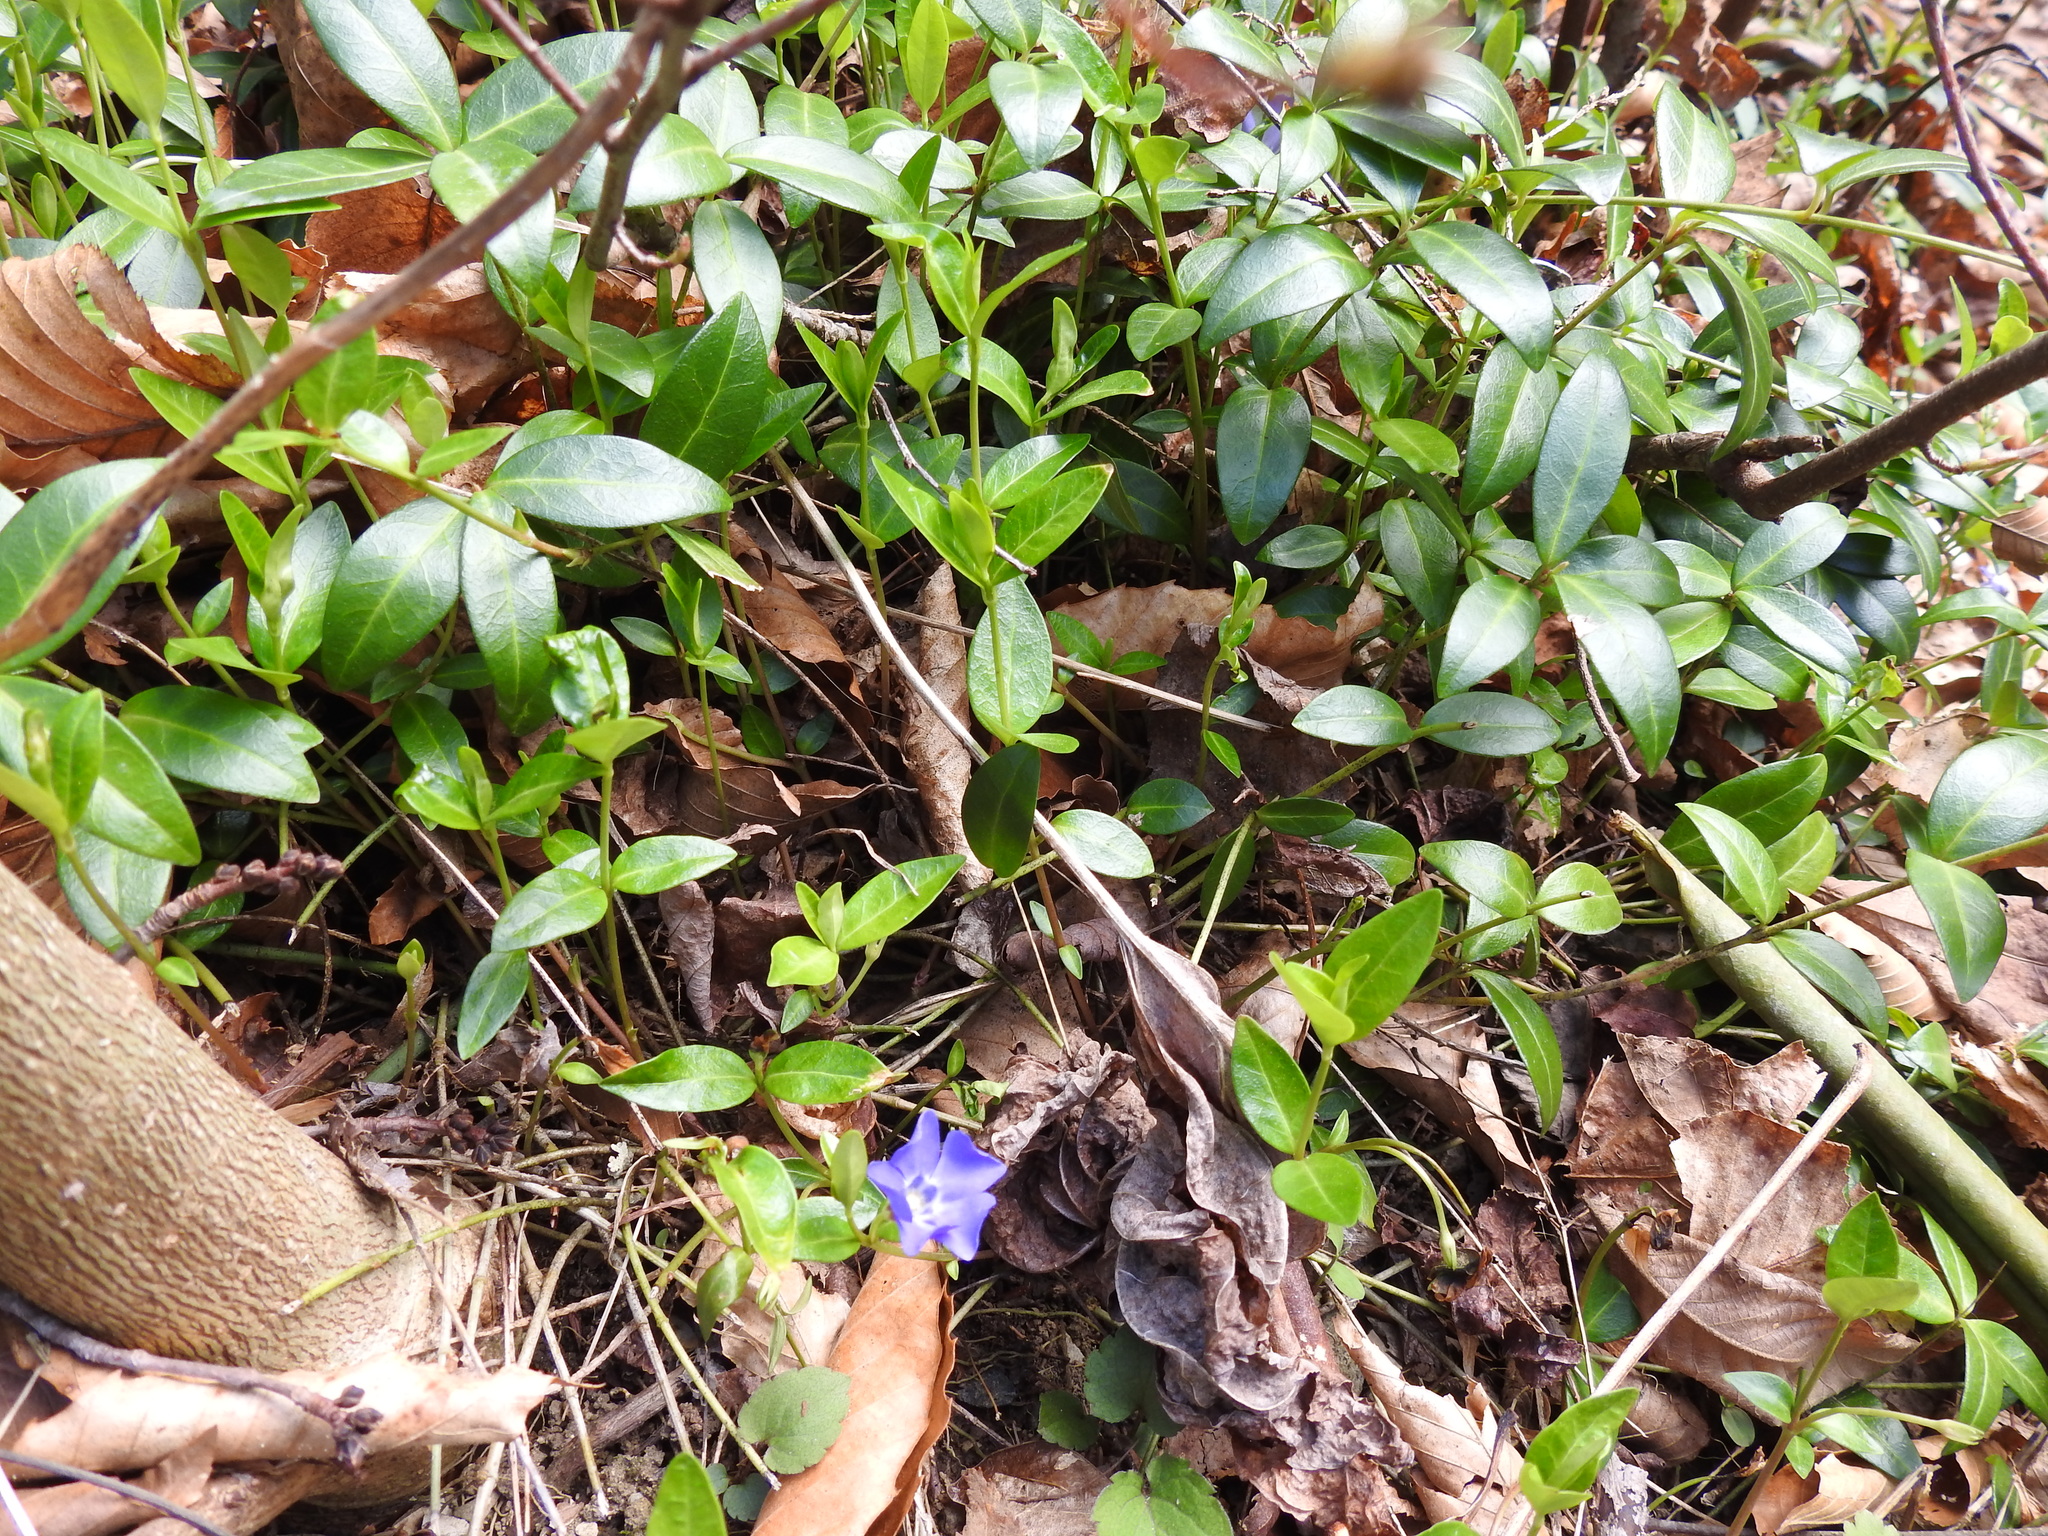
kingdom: Plantae
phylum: Tracheophyta
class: Magnoliopsida
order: Gentianales
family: Apocynaceae
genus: Vinca
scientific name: Vinca minor
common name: Lesser periwinkle
